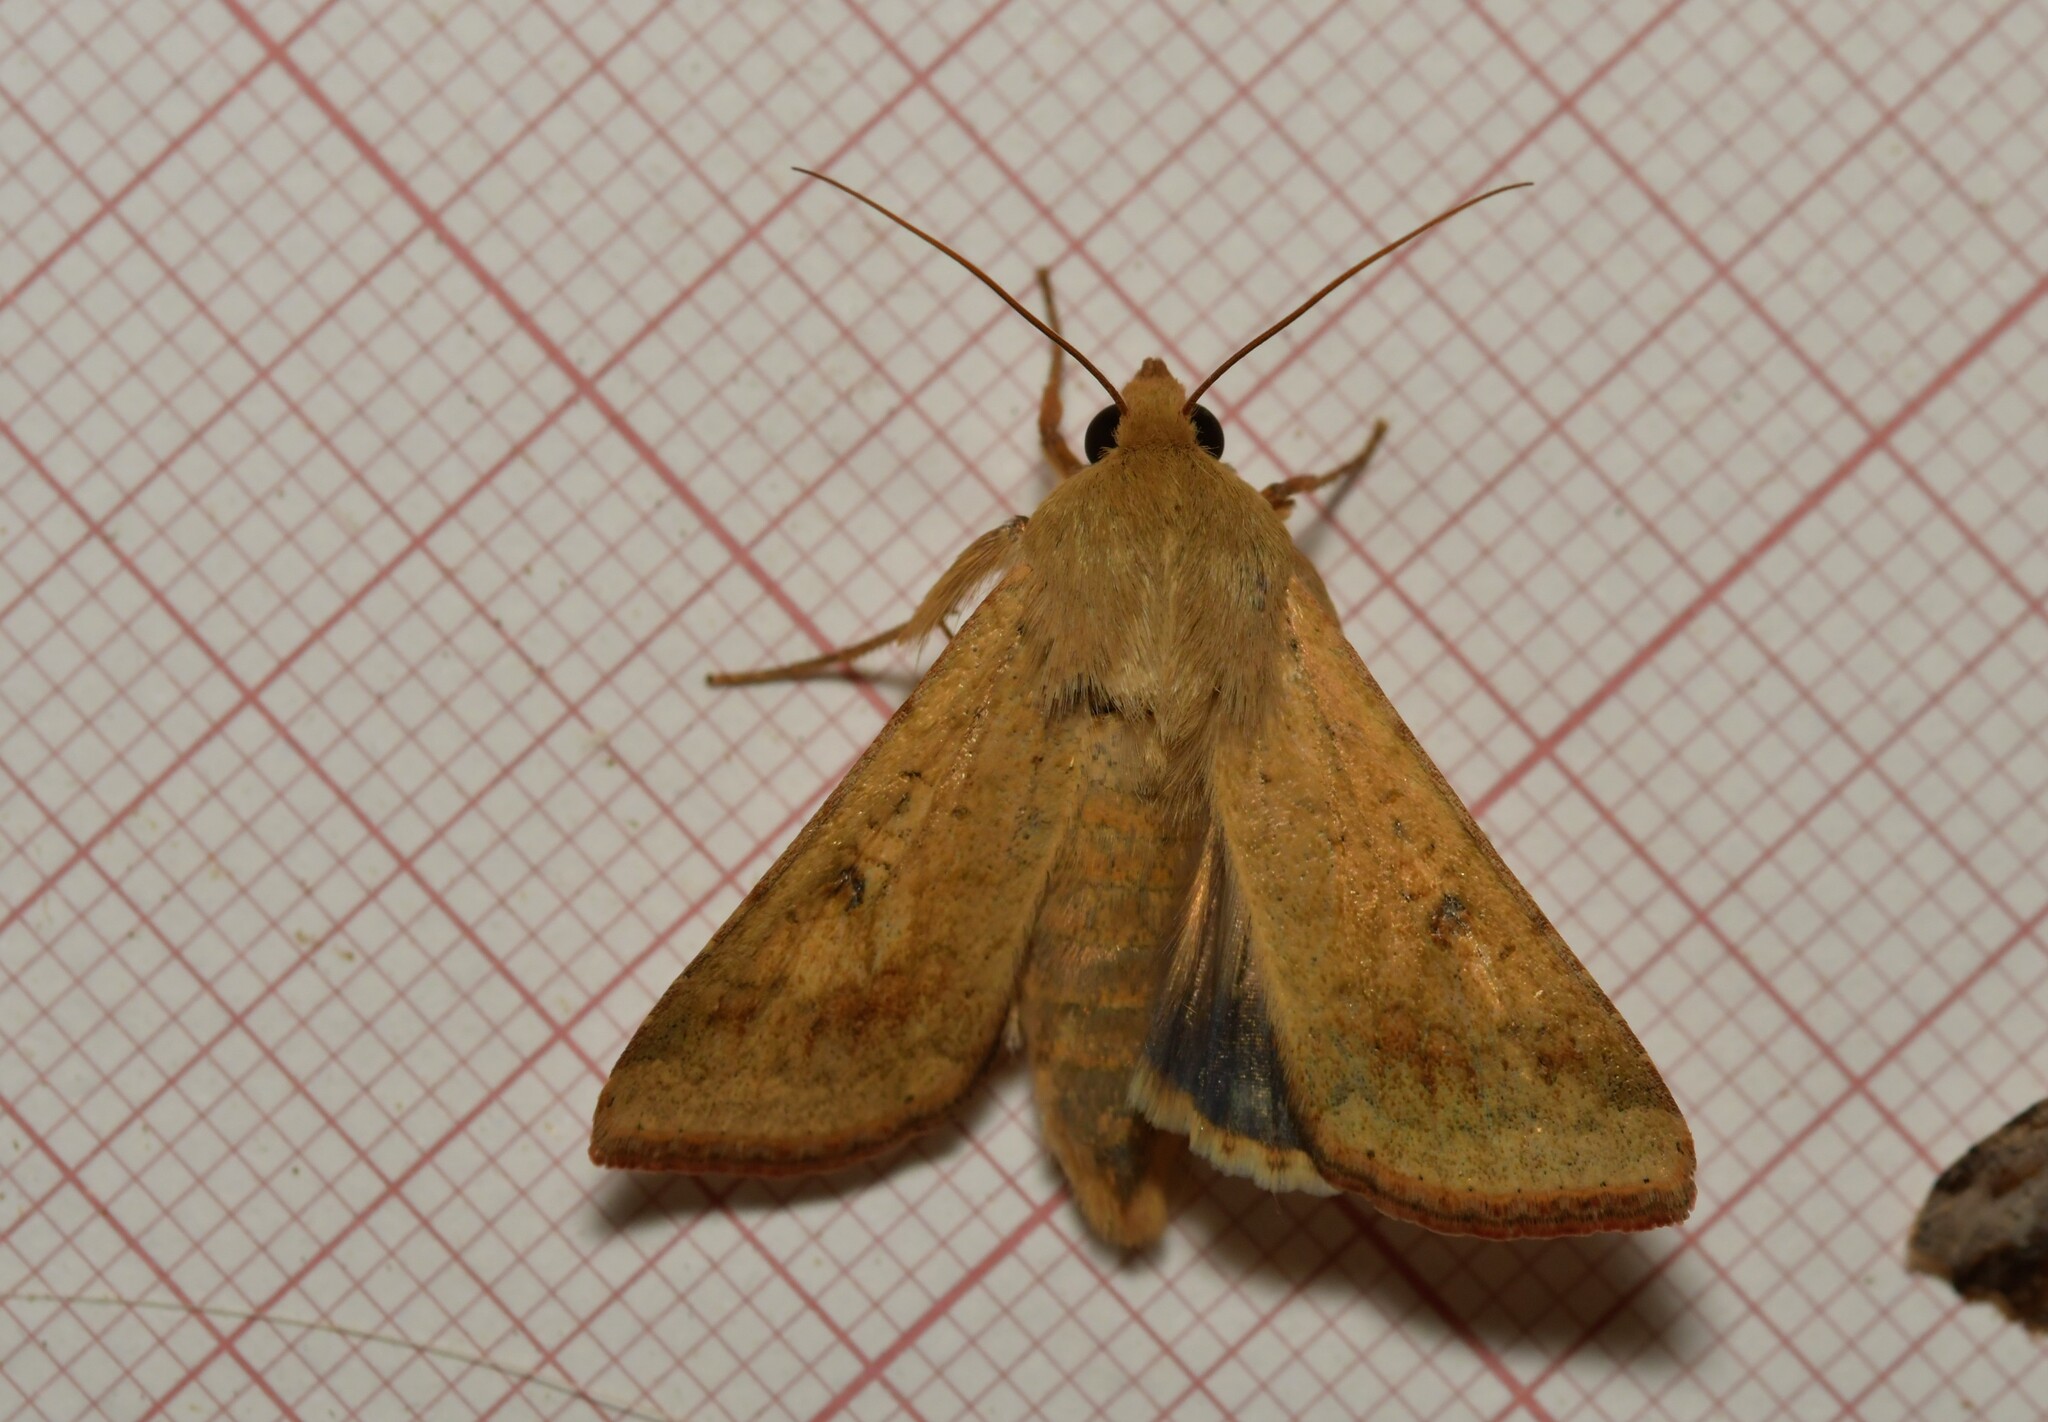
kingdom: Animalia
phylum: Arthropoda
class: Insecta
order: Lepidoptera
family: Noctuidae
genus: Helicoverpa
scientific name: Helicoverpa armigera
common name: Cotton bollworm
